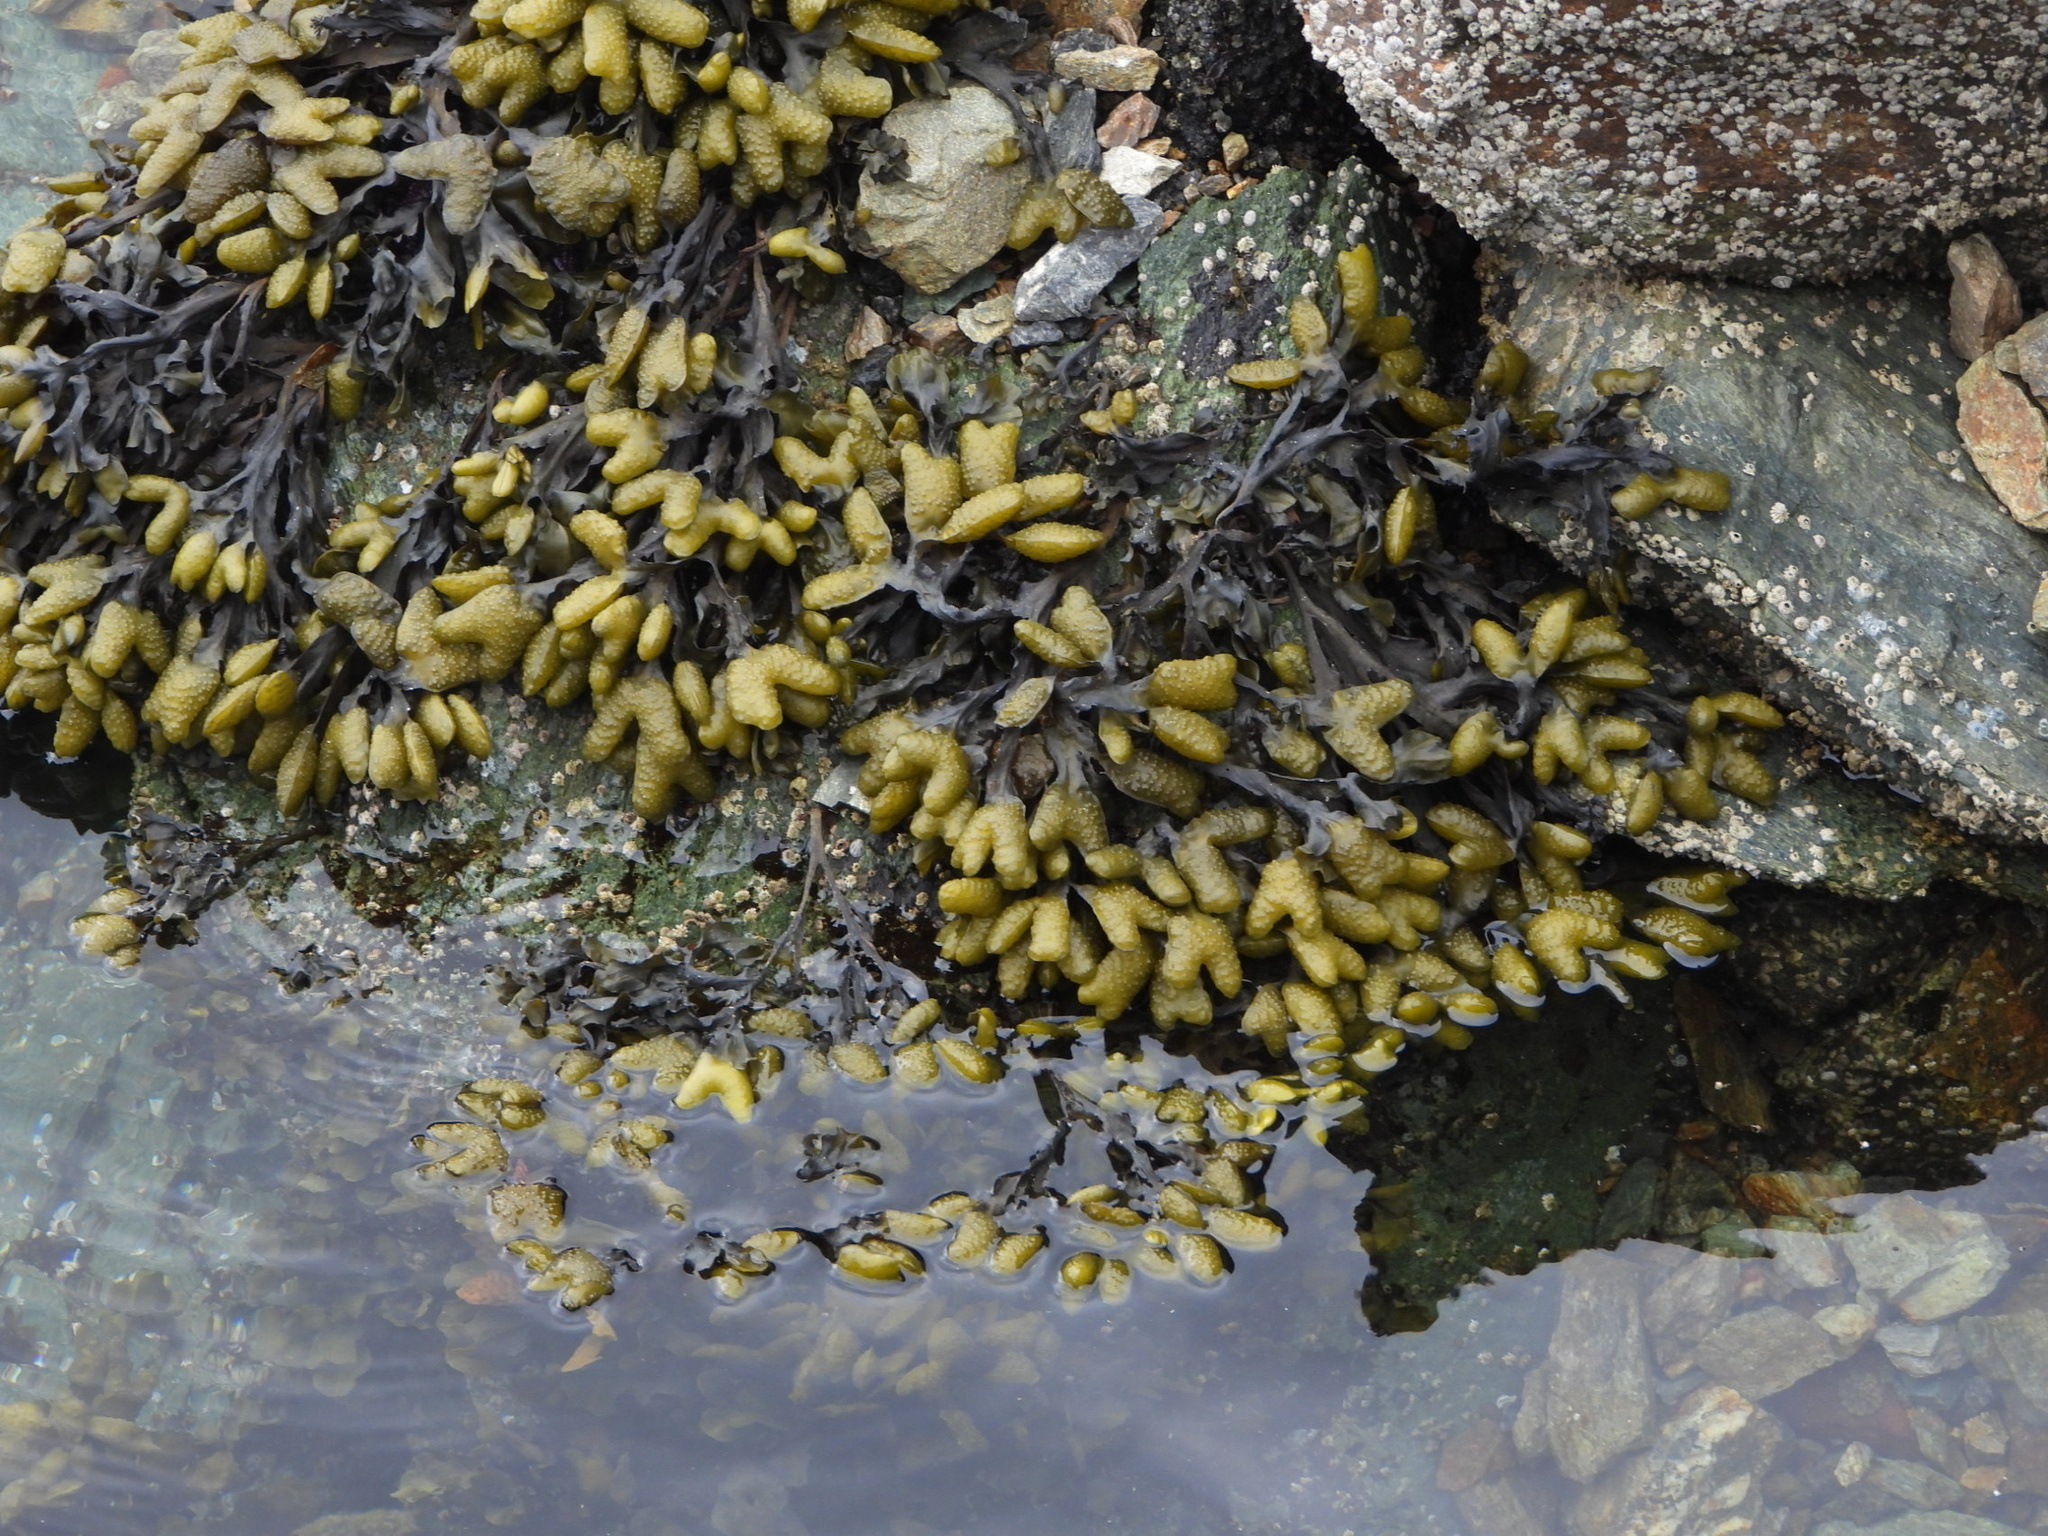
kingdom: Chromista
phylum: Ochrophyta
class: Phaeophyceae
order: Fucales
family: Fucaceae
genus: Fucus
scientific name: Fucus distichus
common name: Rockweed
